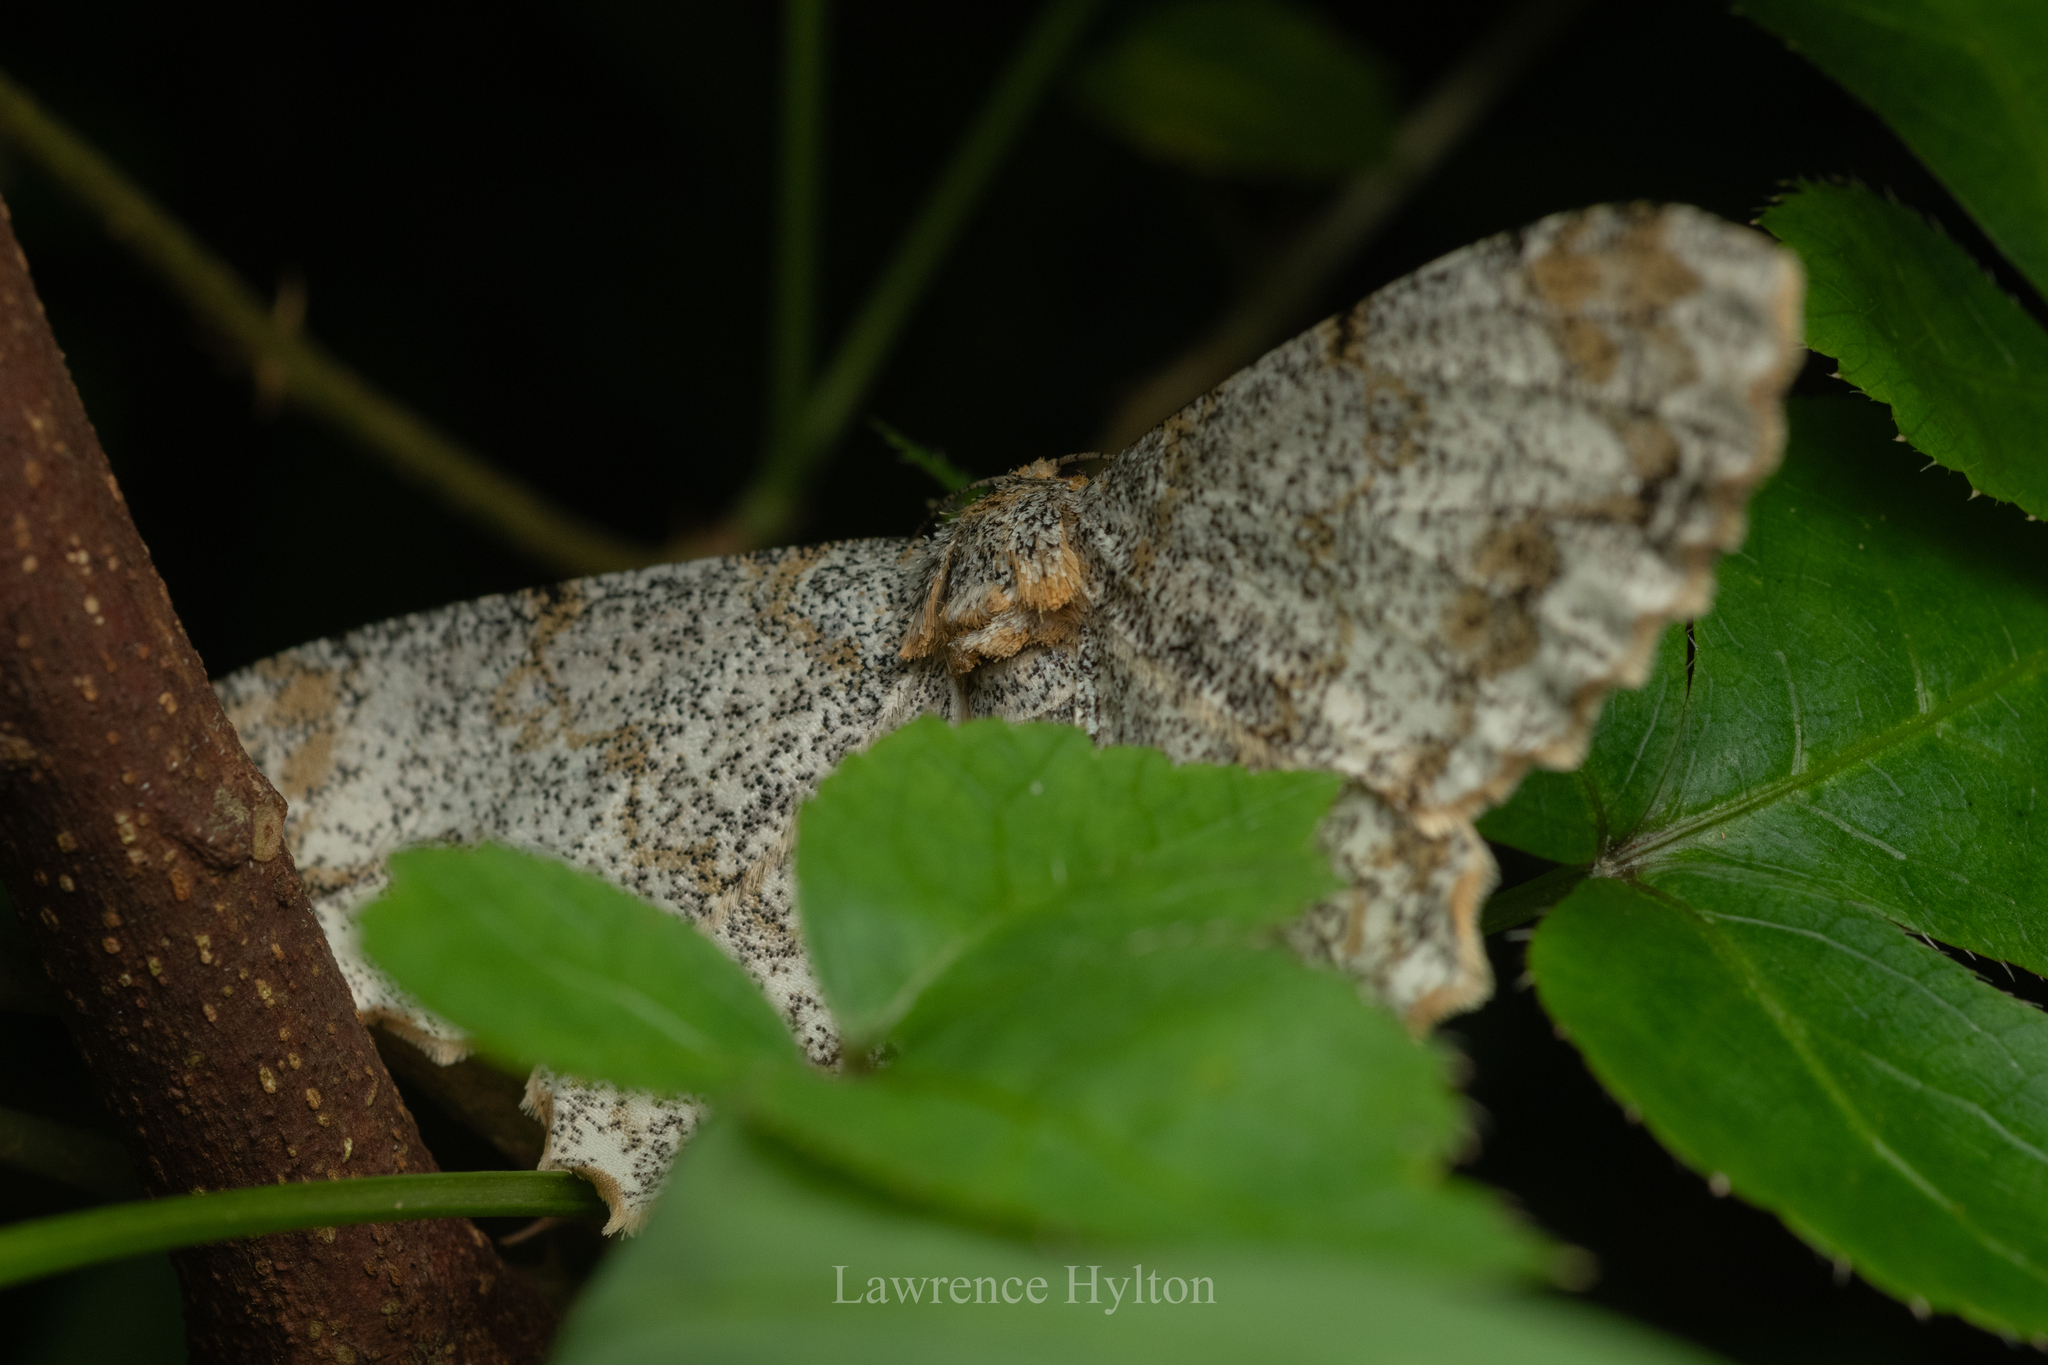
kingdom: Animalia
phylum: Arthropoda
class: Insecta
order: Lepidoptera
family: Geometridae
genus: Biston
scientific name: Biston suppressaria
